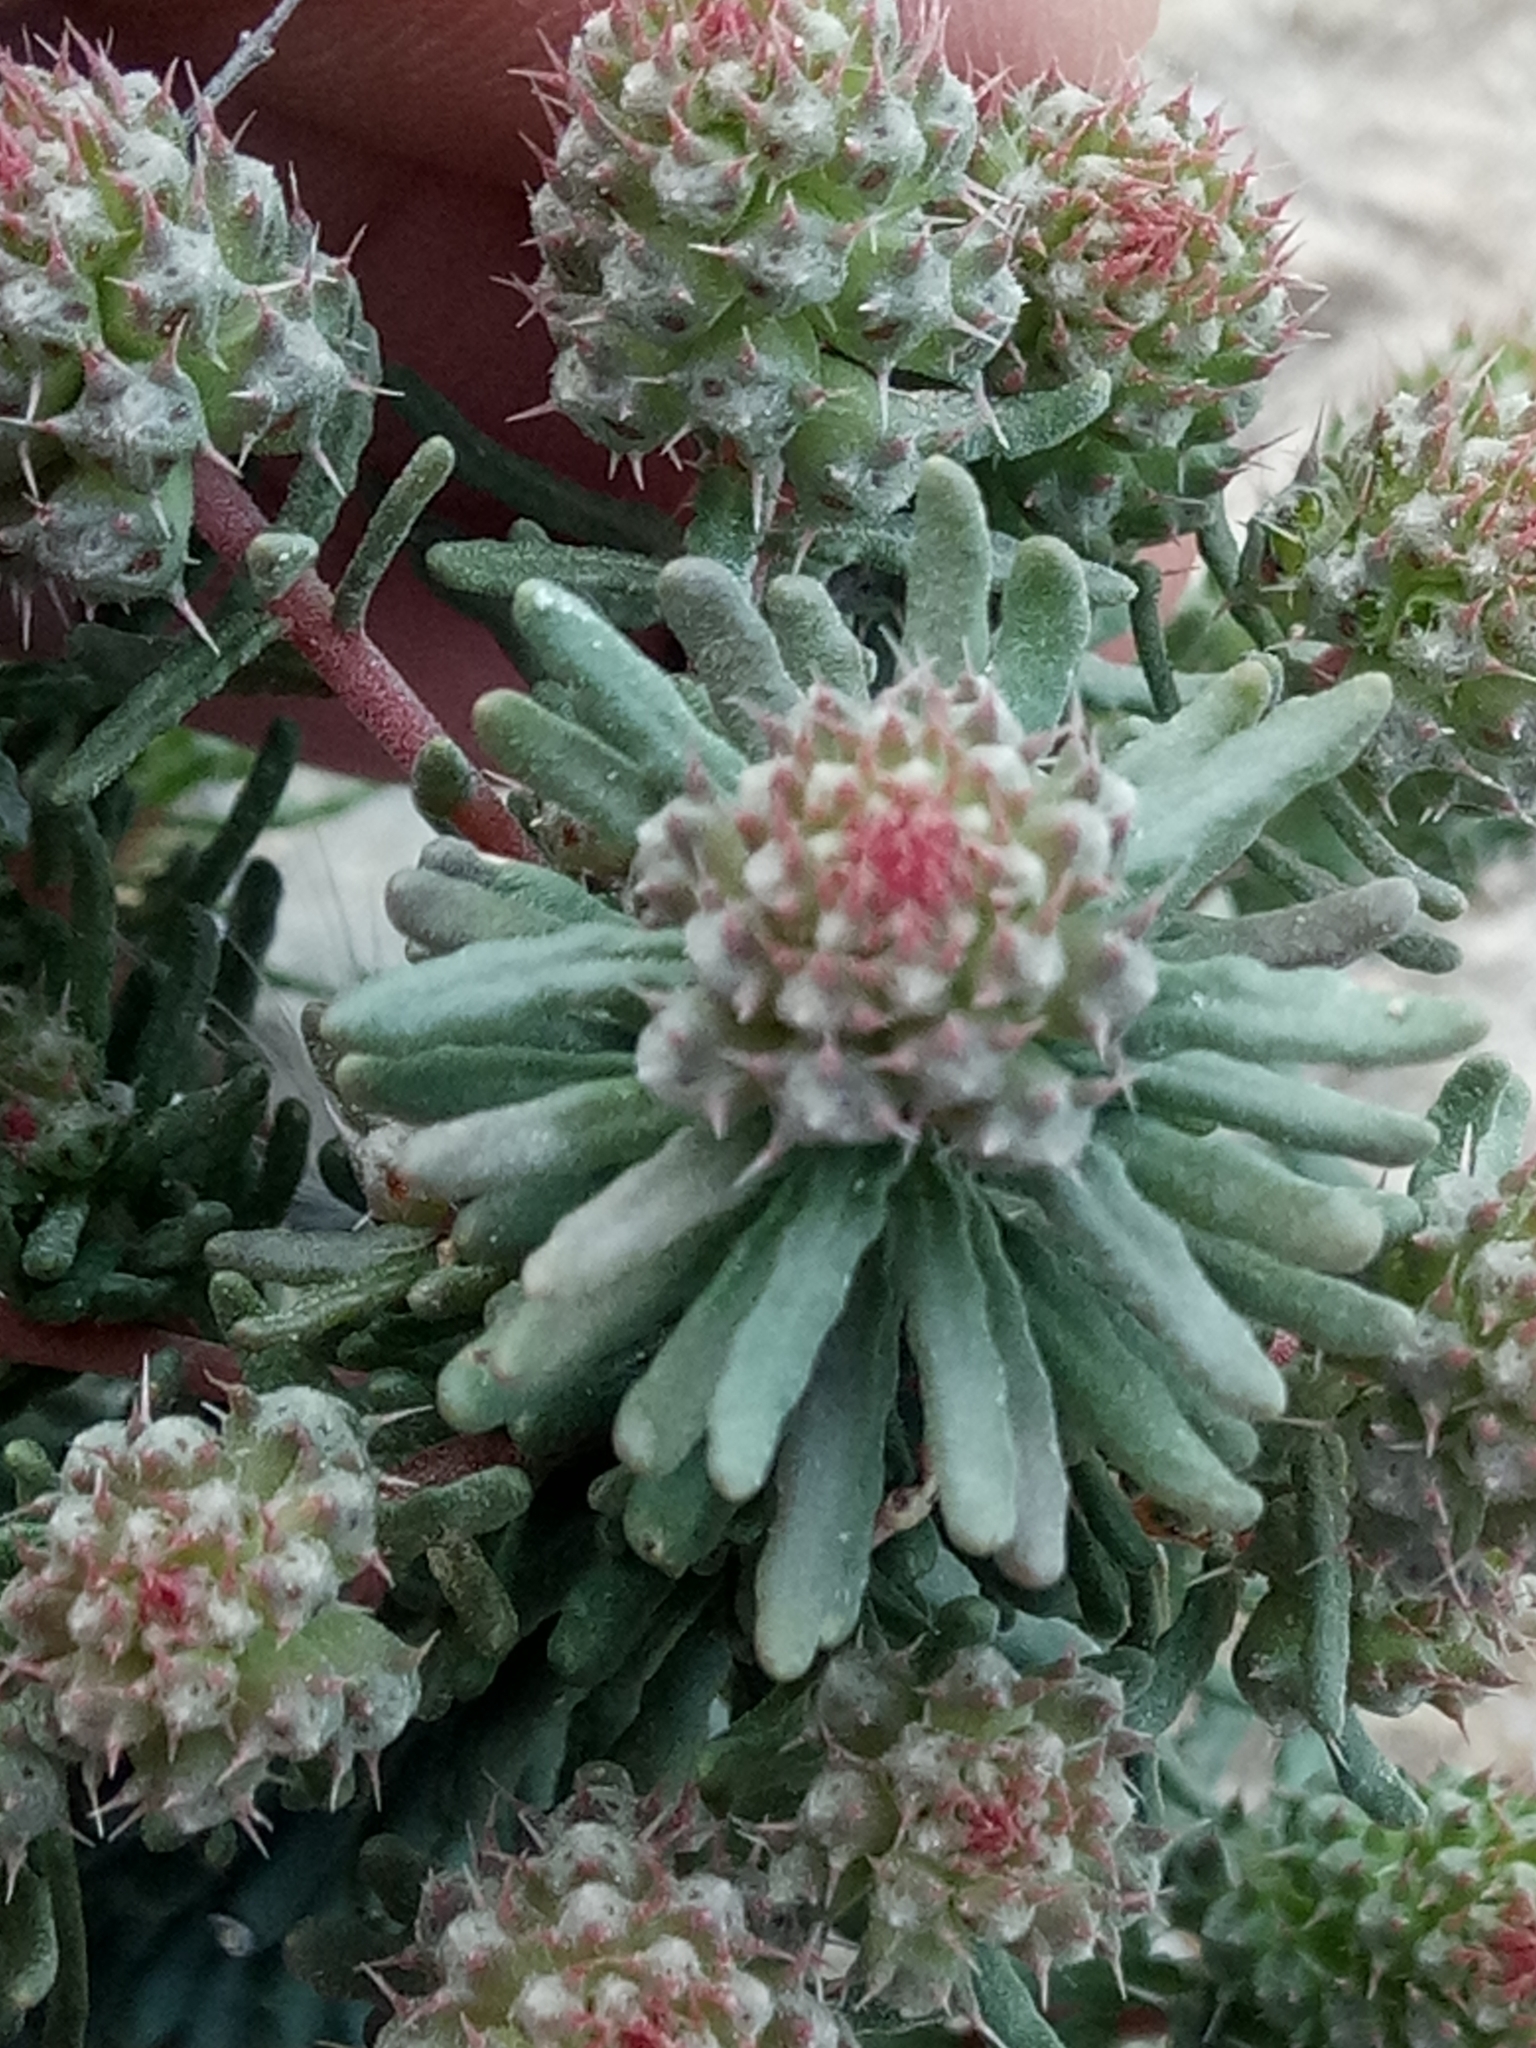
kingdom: Plantae
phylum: Tracheophyta
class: Magnoliopsida
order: Ericales
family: Primulaceae
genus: Coris
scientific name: Coris monspeliensis
